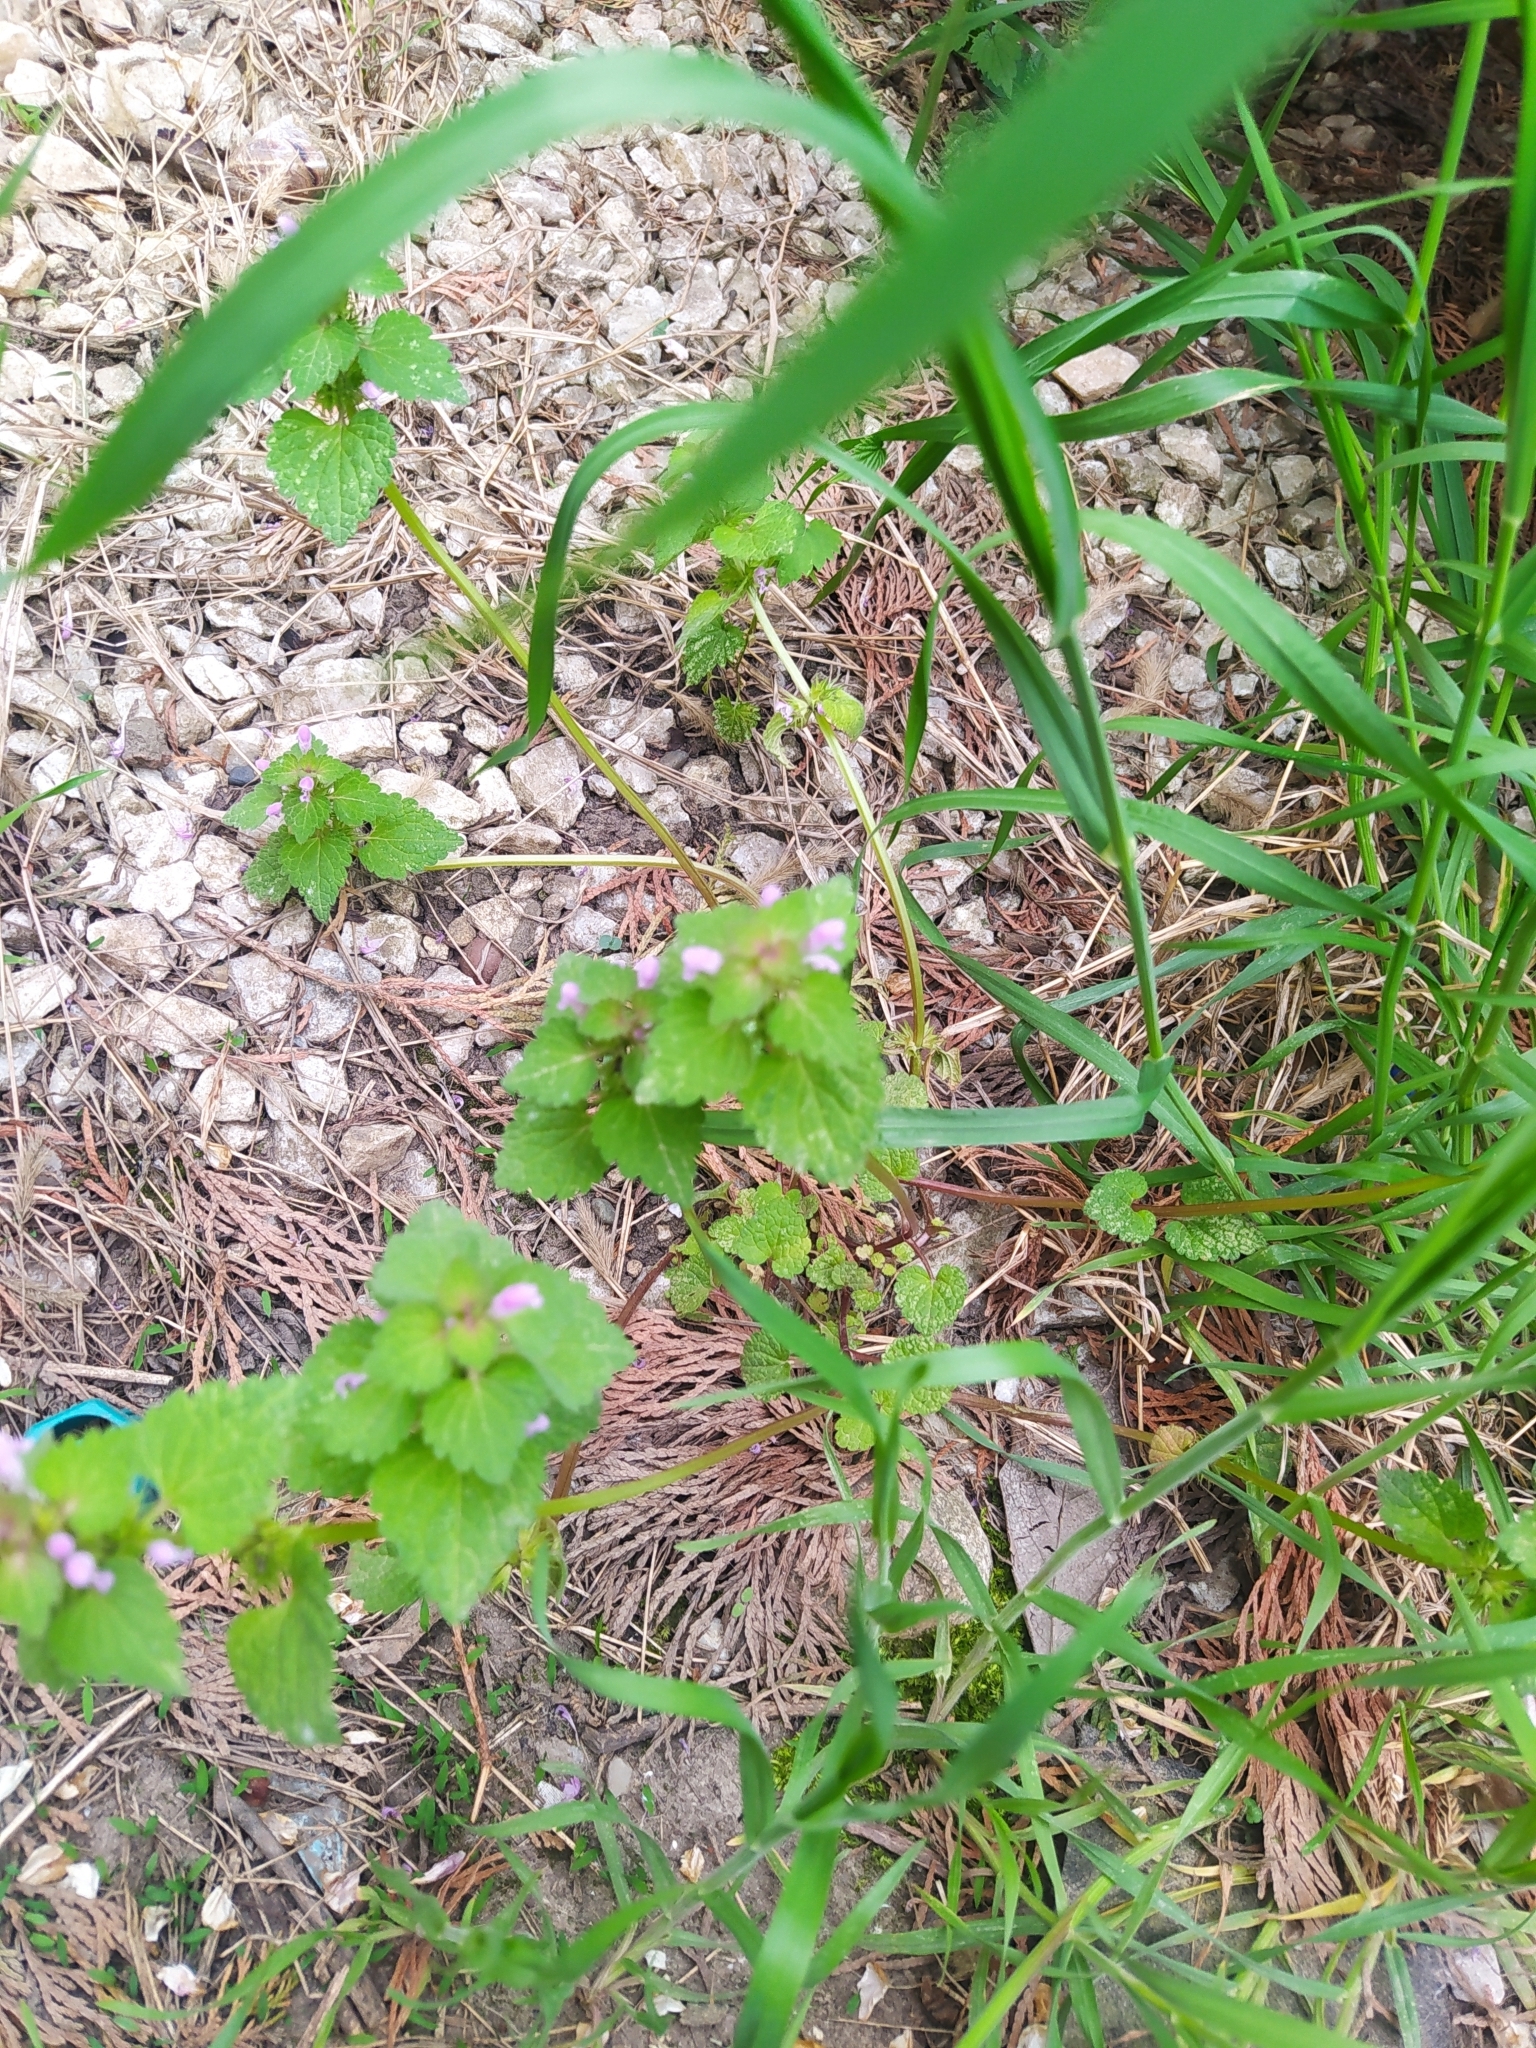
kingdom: Plantae
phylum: Tracheophyta
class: Magnoliopsida
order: Lamiales
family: Lamiaceae
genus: Lamium
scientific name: Lamium purpureum
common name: Red dead-nettle
